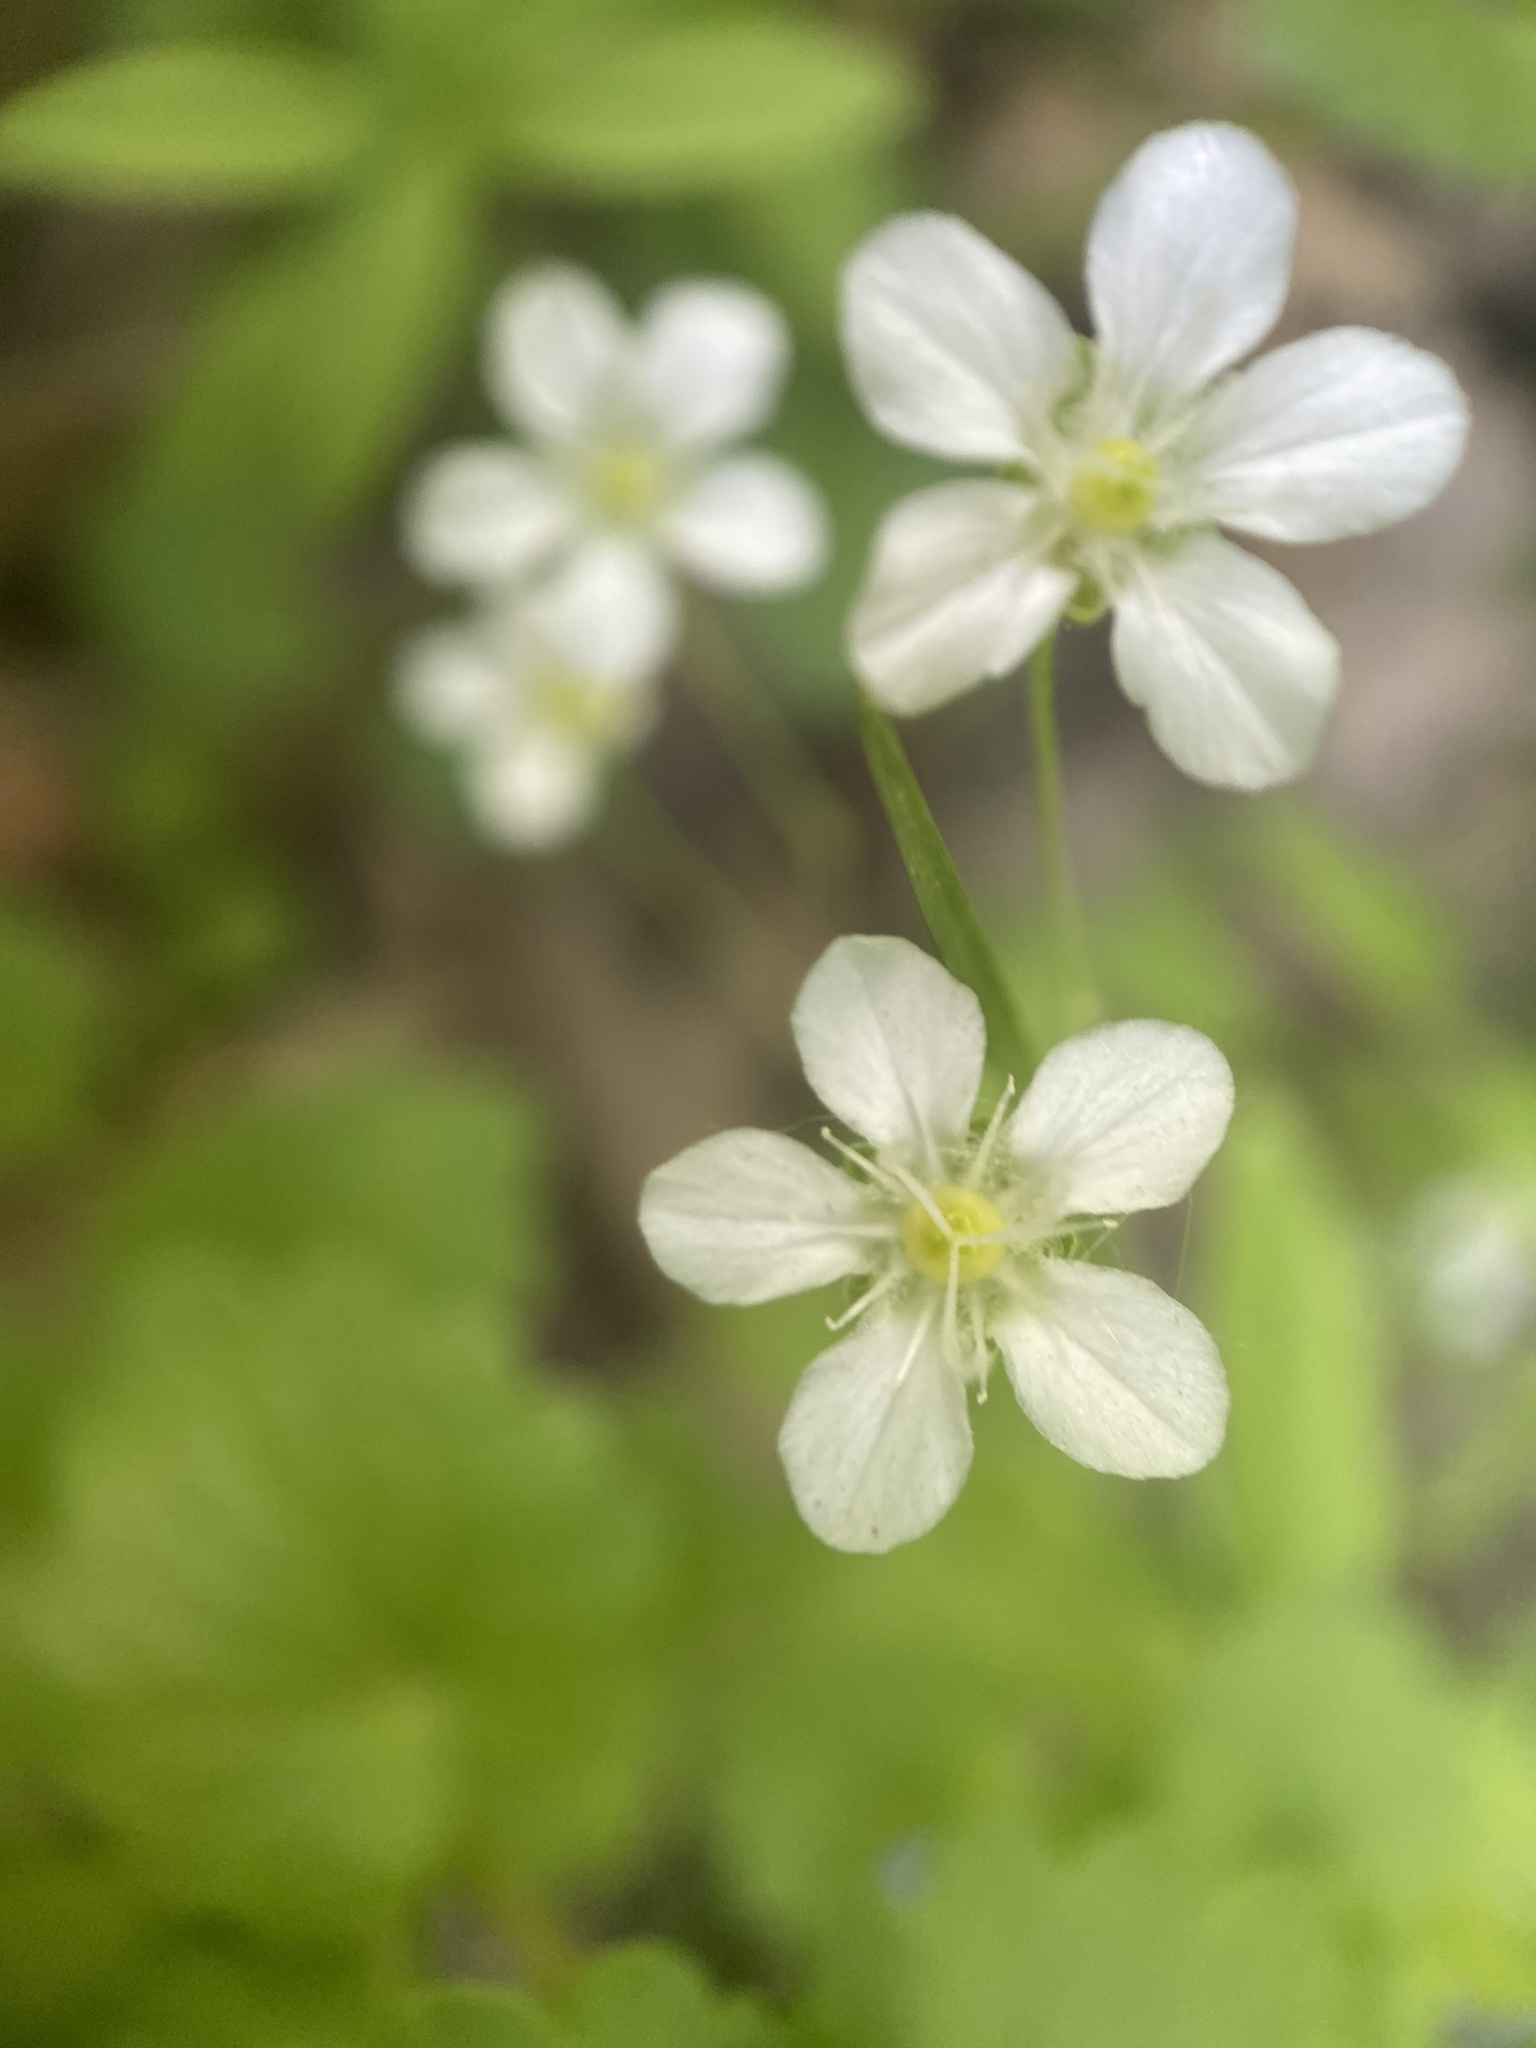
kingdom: Plantae
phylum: Tracheophyta
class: Magnoliopsida
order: Caryophyllales
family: Caryophyllaceae
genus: Moehringia
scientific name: Moehringia lateriflora
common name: Blunt-leaved sandwort
